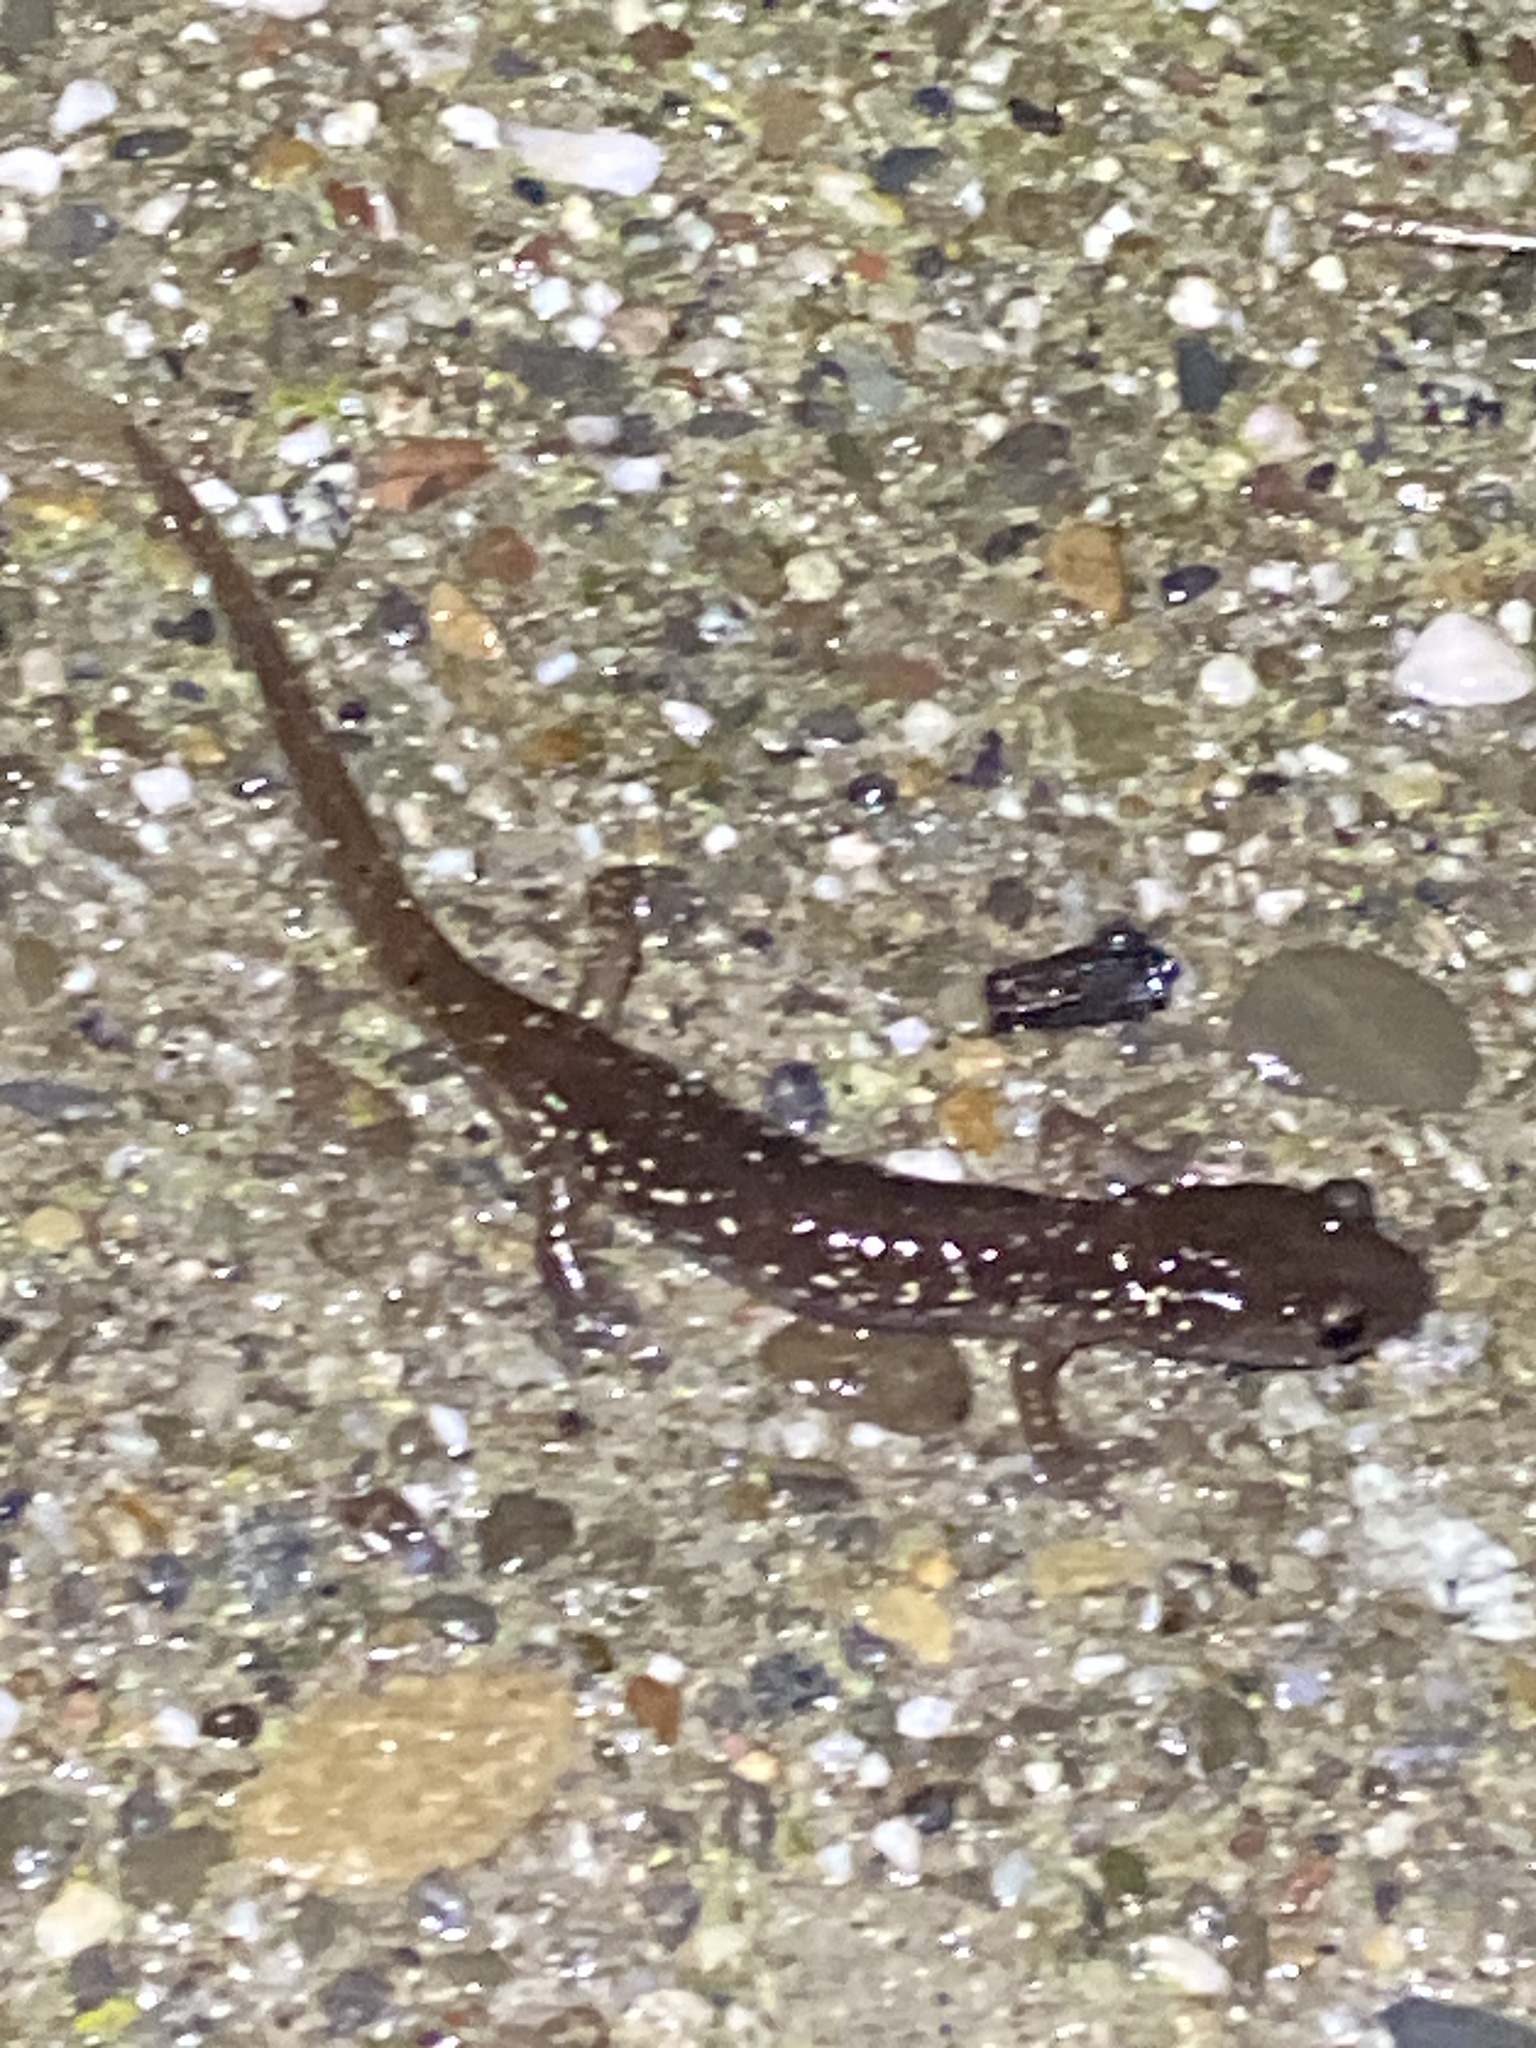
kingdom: Animalia
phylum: Chordata
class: Amphibia
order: Caudata
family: Plethodontidae
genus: Aneides
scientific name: Aneides lugubris
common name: Arboreal salamander
